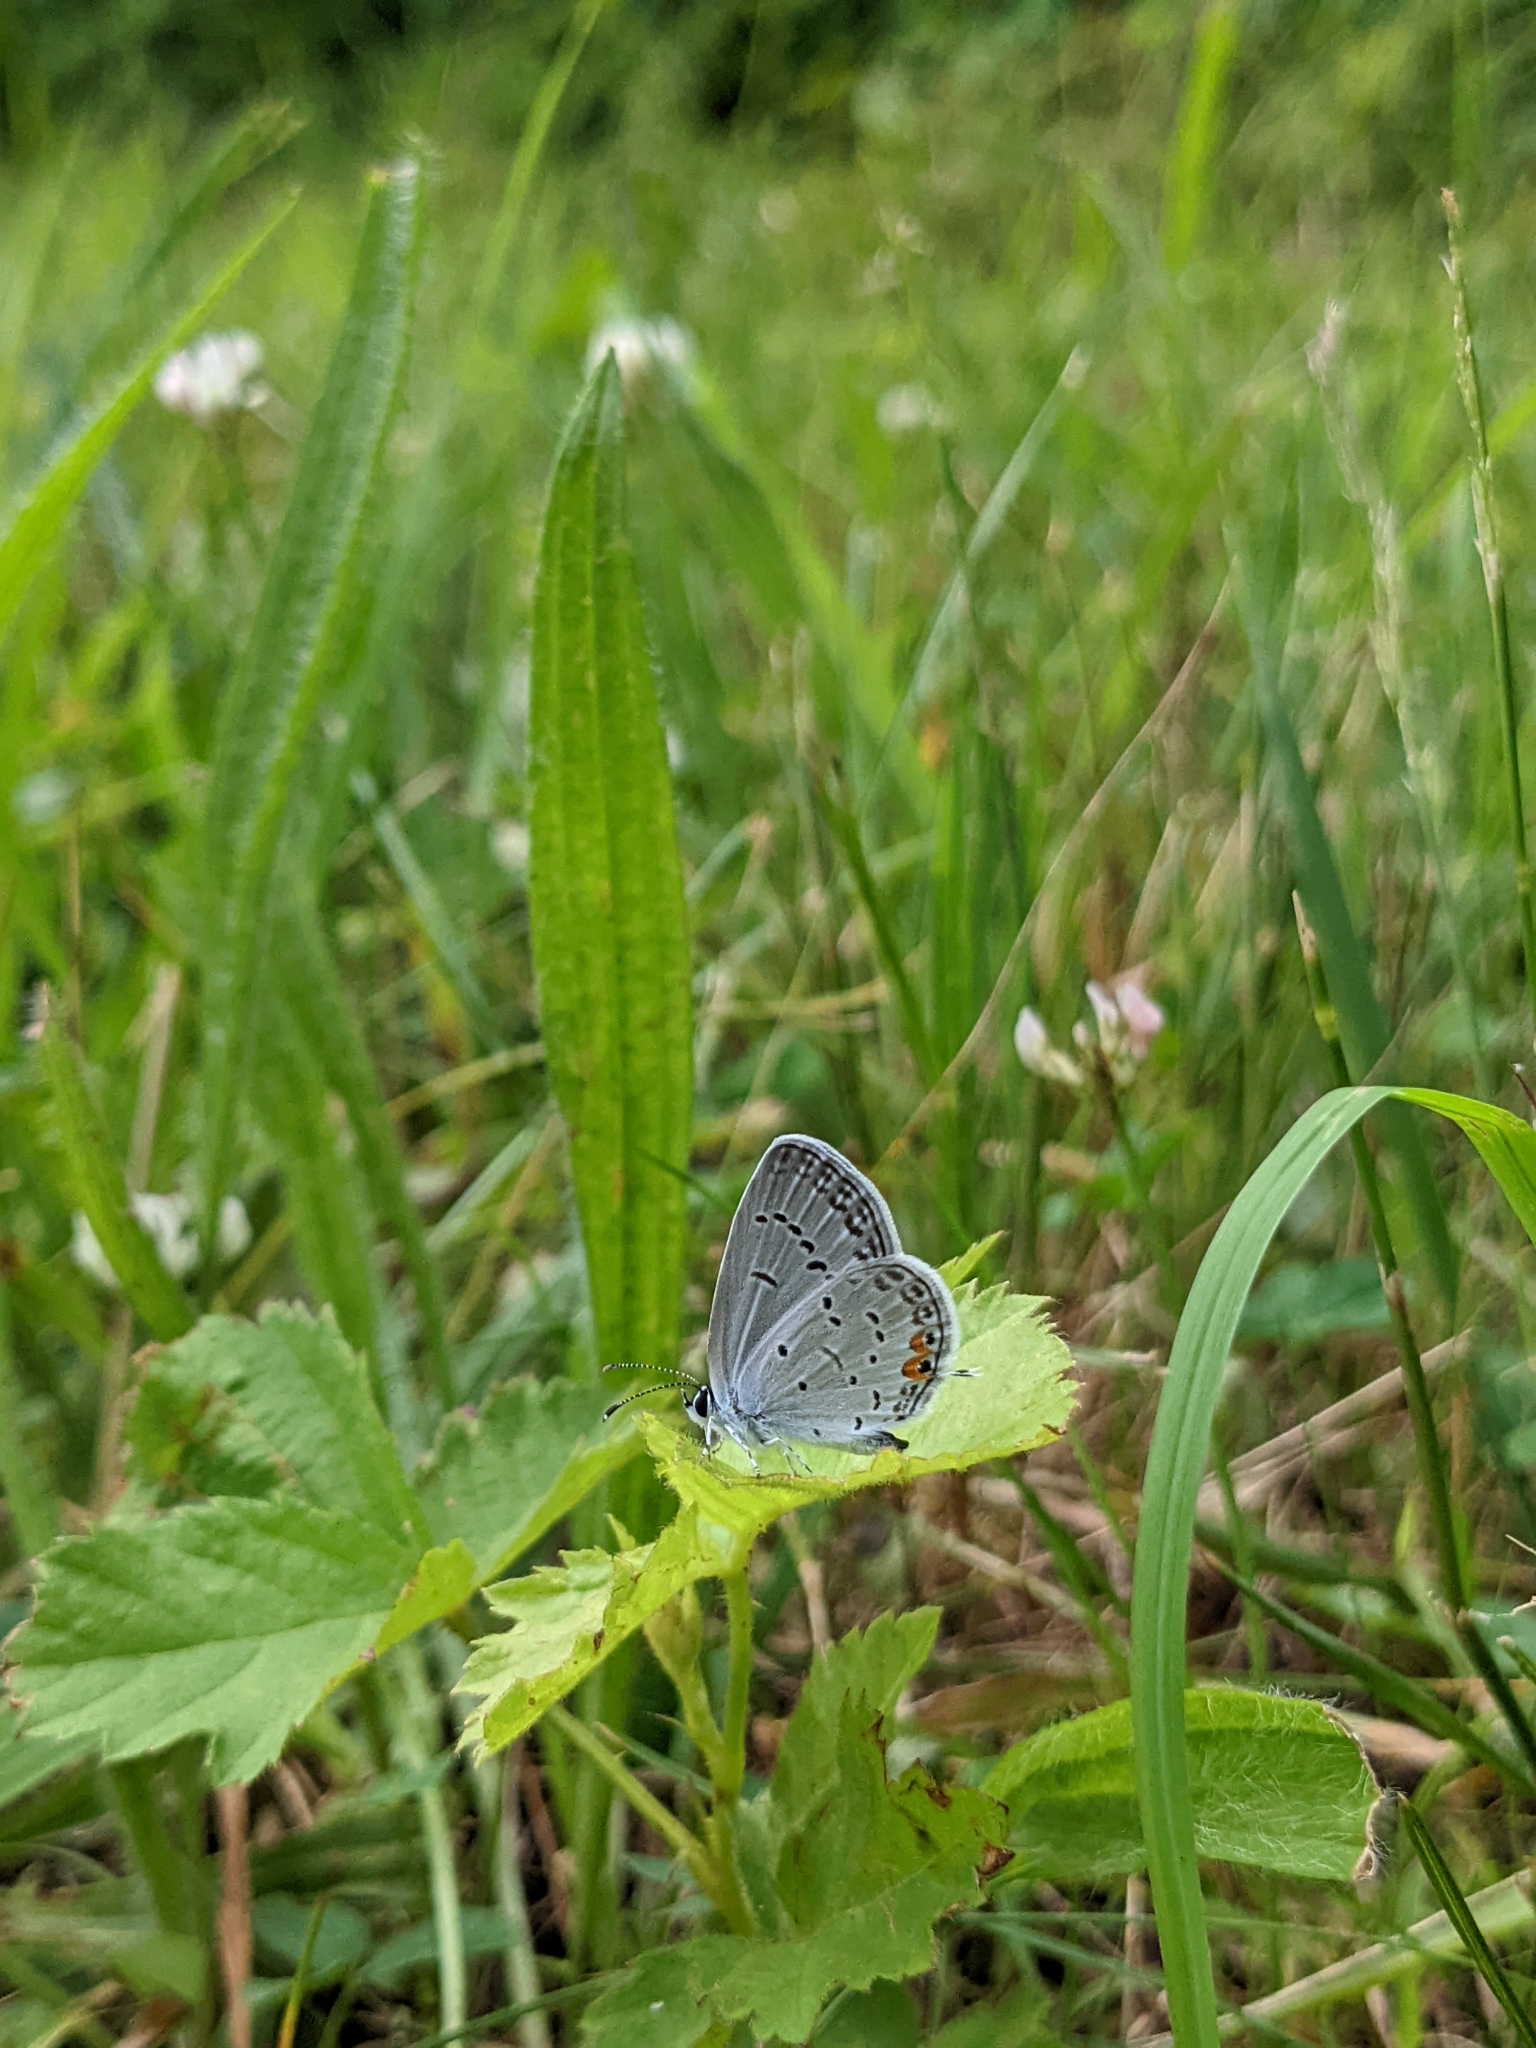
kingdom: Animalia
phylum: Arthropoda
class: Insecta
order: Lepidoptera
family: Lycaenidae
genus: Elkalyce
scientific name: Elkalyce comyntas
